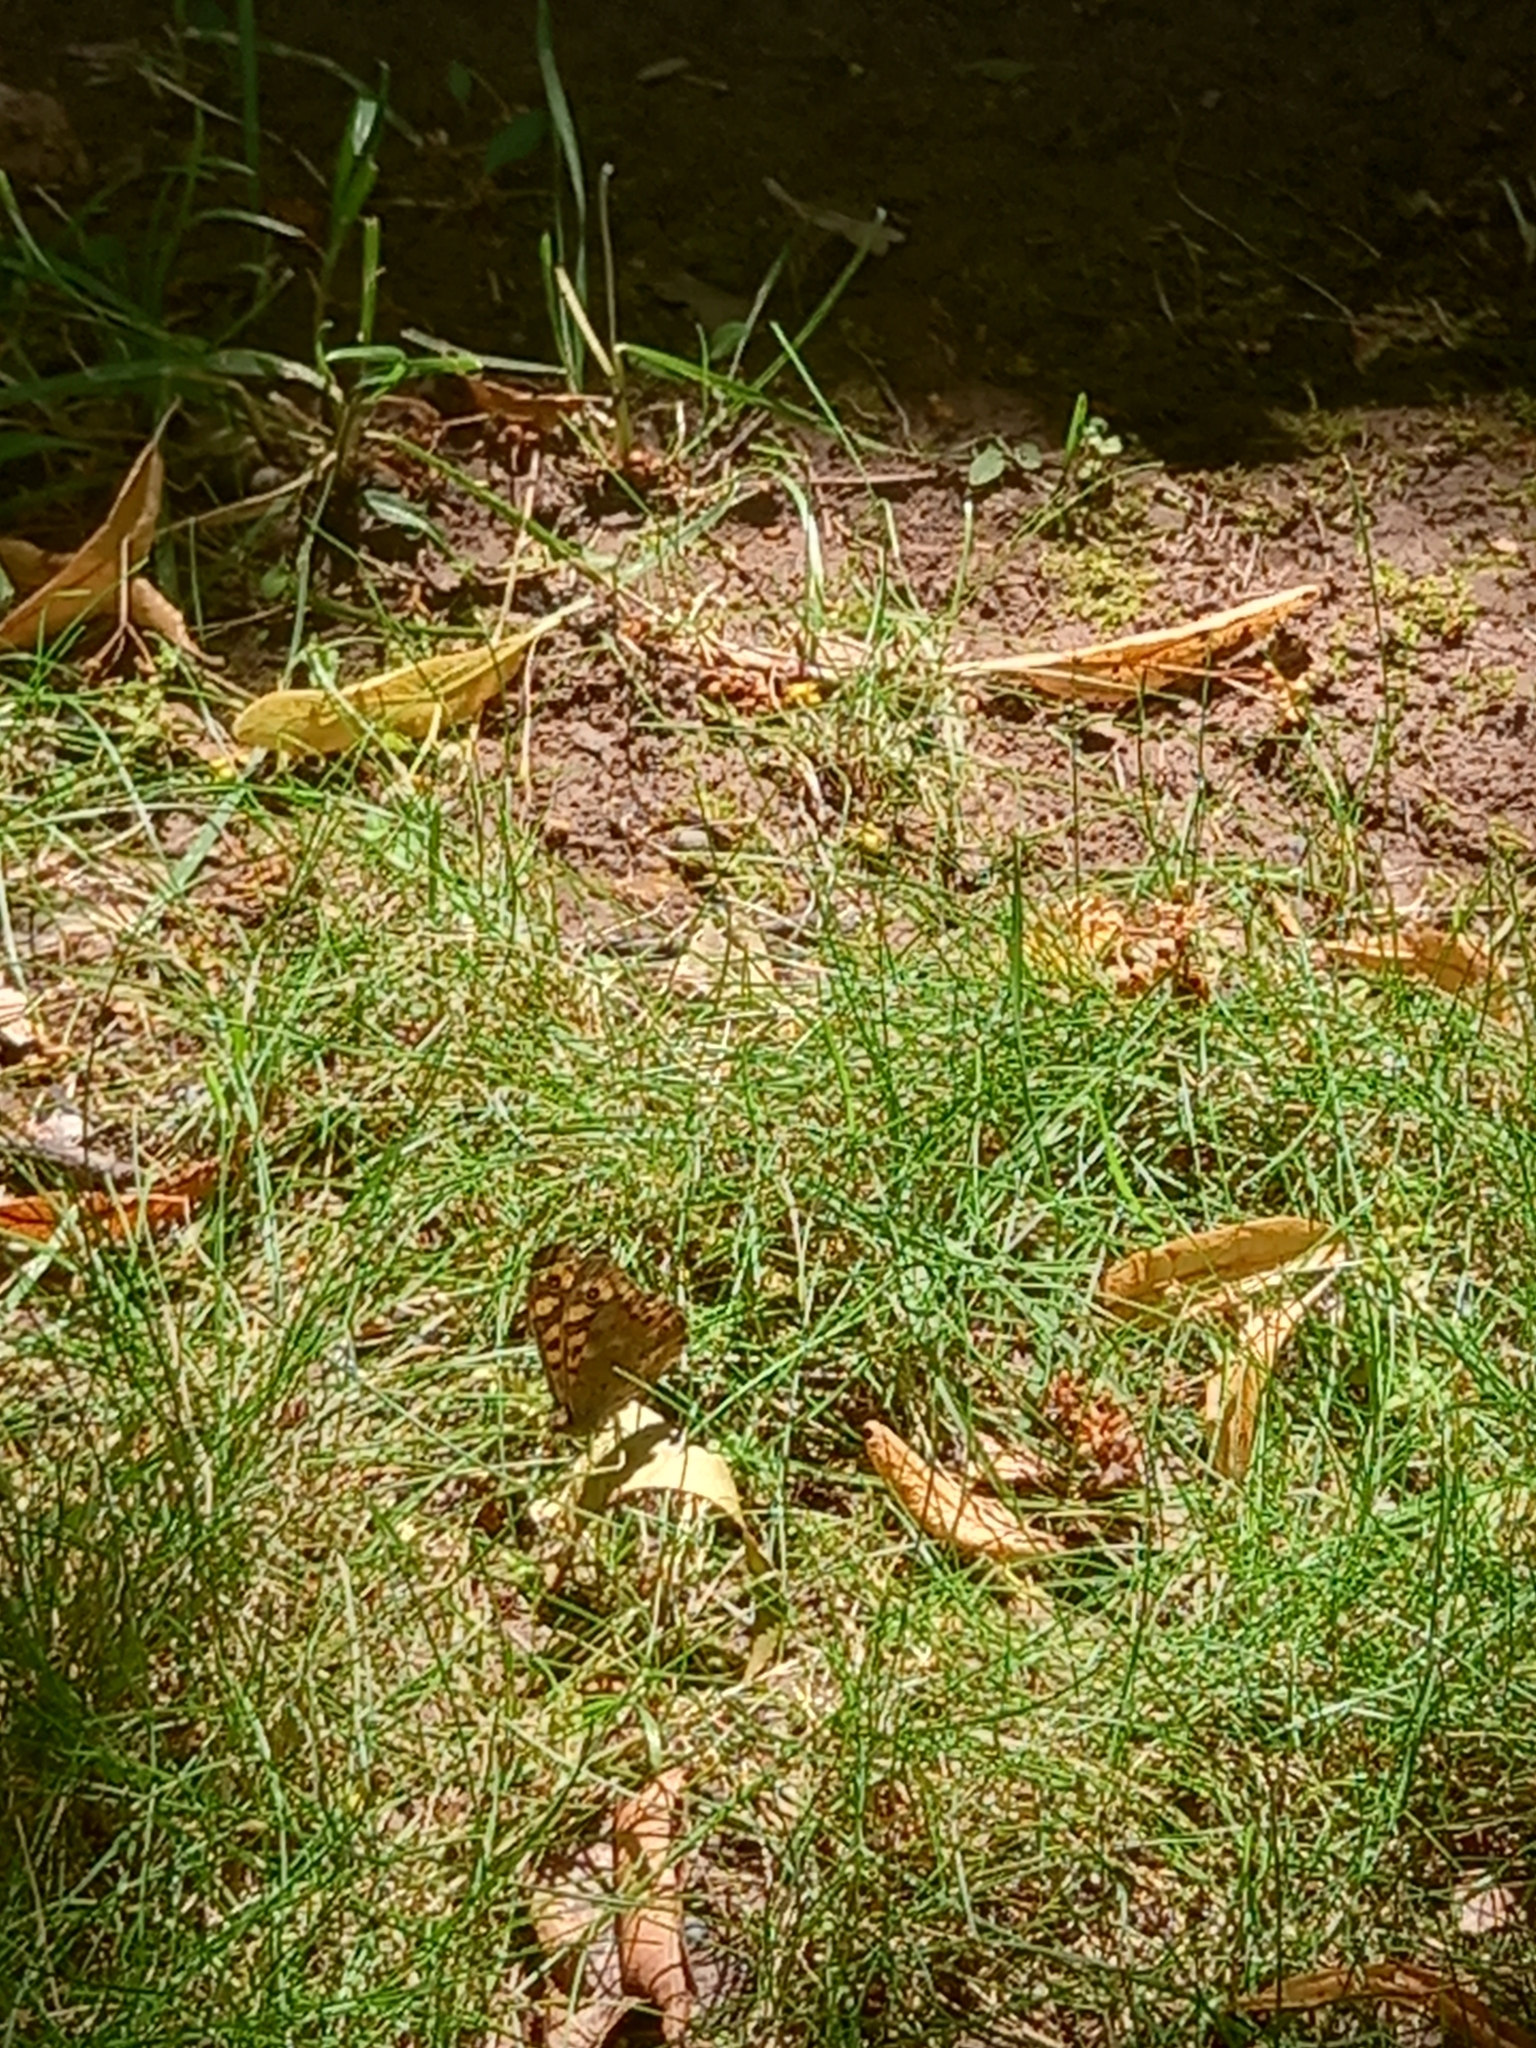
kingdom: Animalia
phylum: Arthropoda
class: Insecta
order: Lepidoptera
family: Nymphalidae
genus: Pararge
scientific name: Pararge aegeria
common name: Speckled wood
